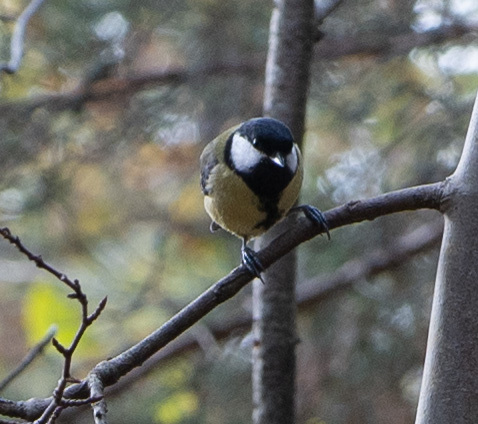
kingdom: Animalia
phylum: Chordata
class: Aves
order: Passeriformes
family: Paridae
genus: Parus
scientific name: Parus major
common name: Great tit
